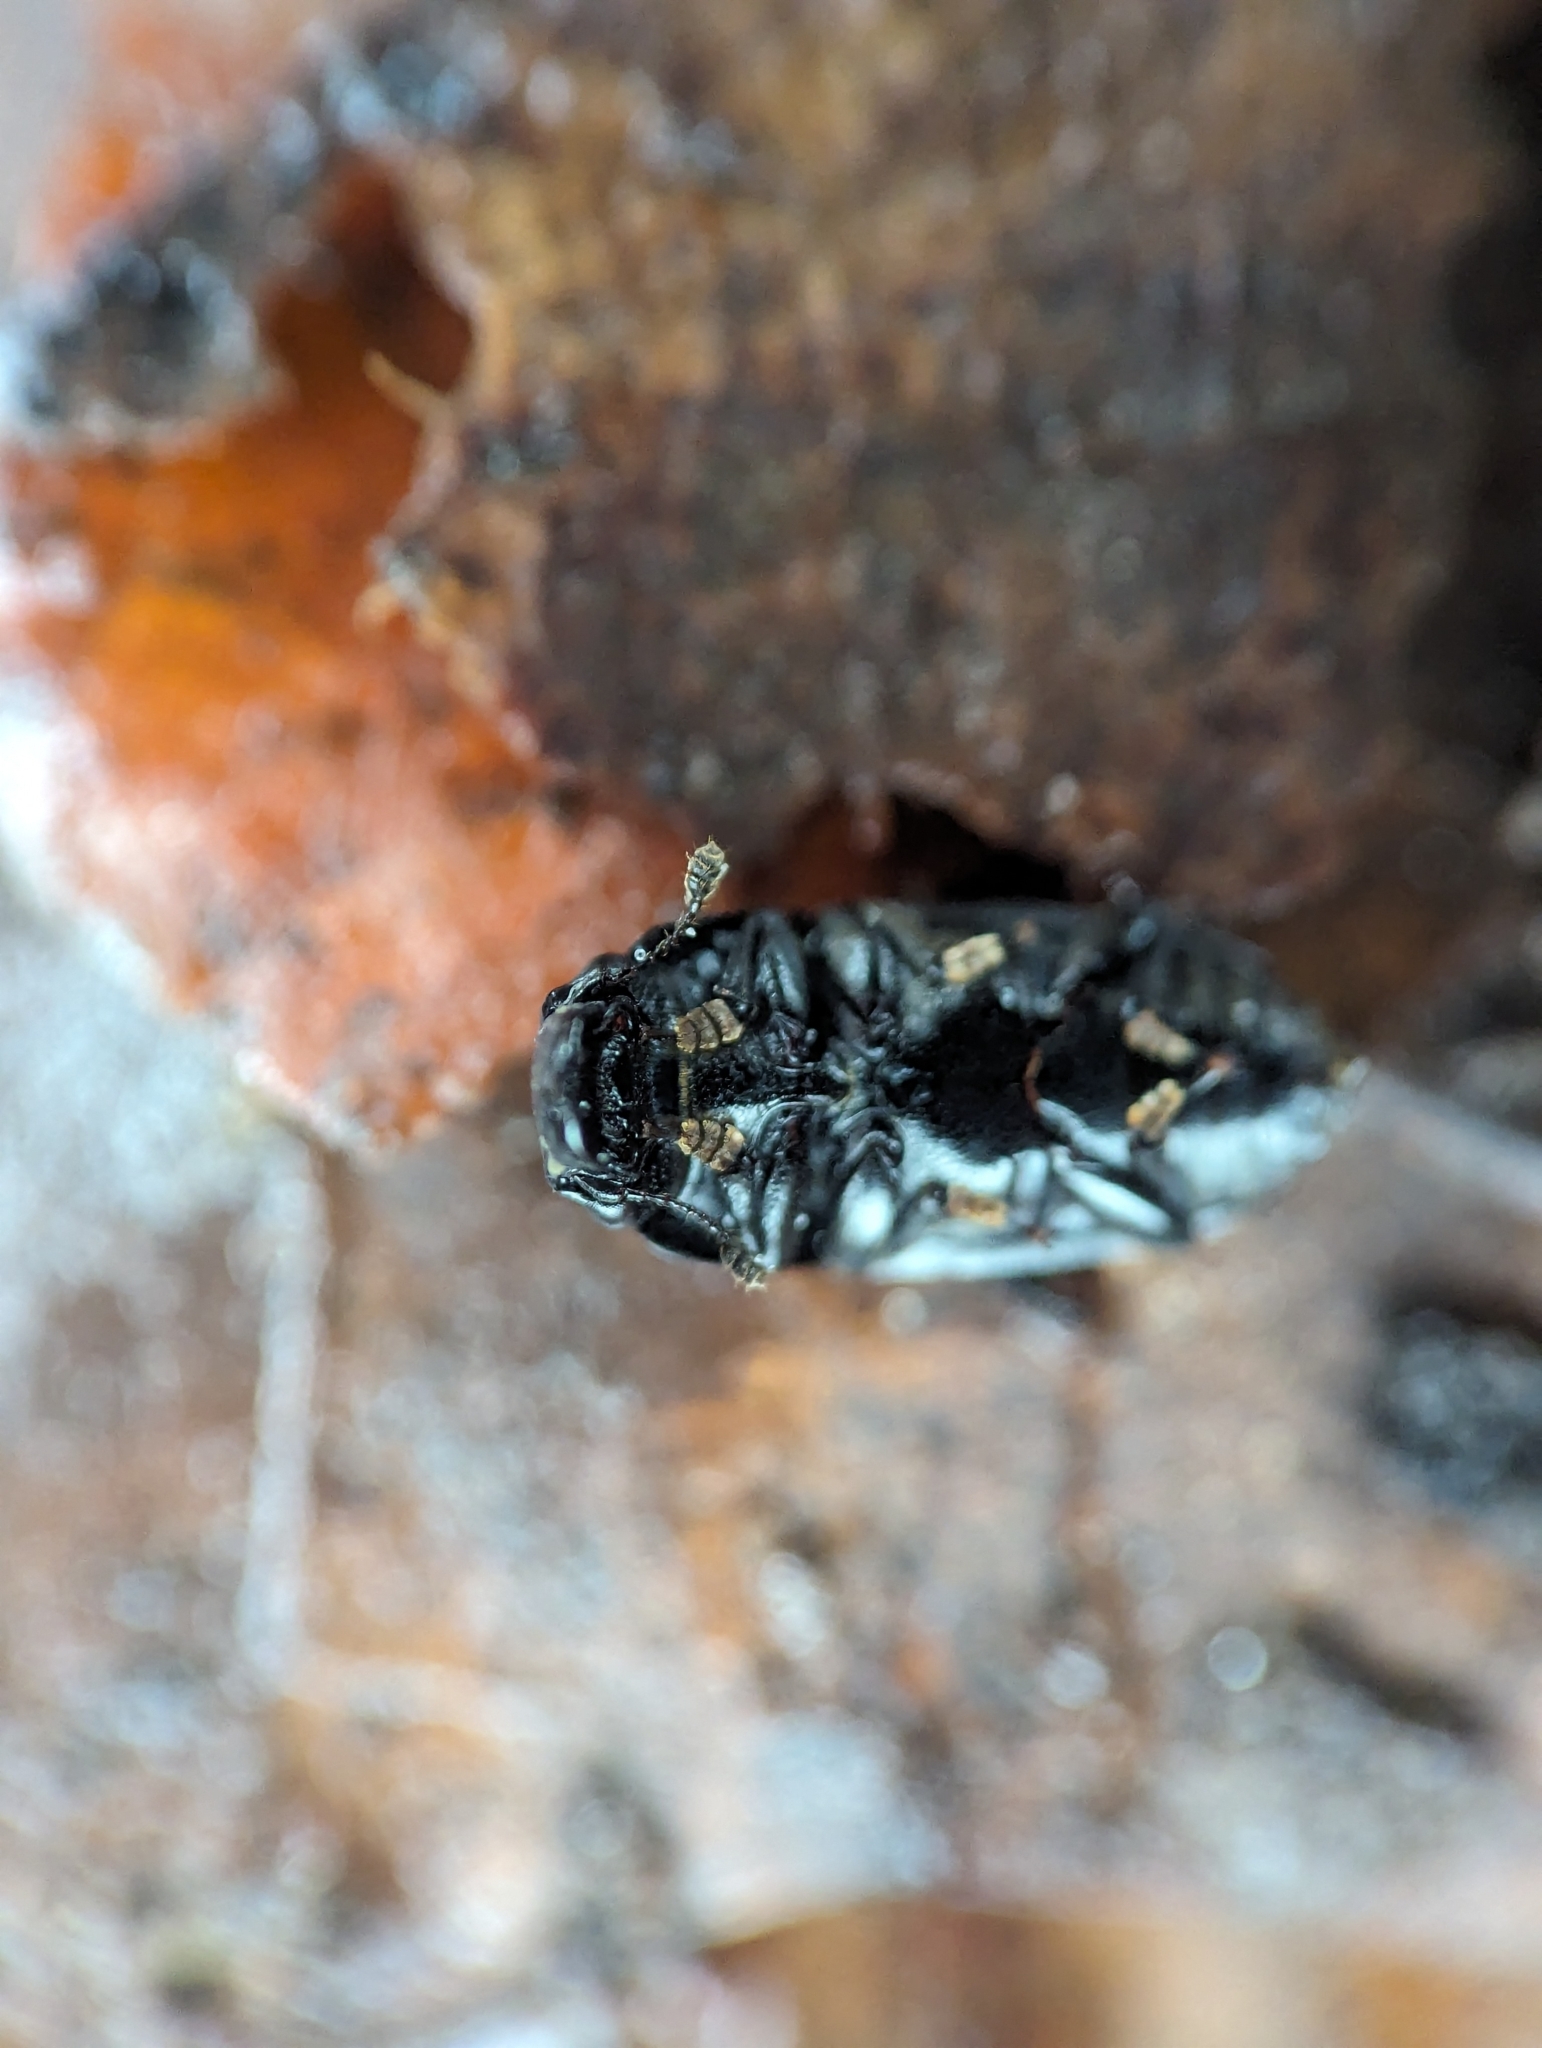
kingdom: Animalia
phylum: Arthropoda
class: Insecta
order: Coleoptera
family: Nitidulidae
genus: Glischrochilus
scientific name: Glischrochilus fasciatus
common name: Picnic beetle
